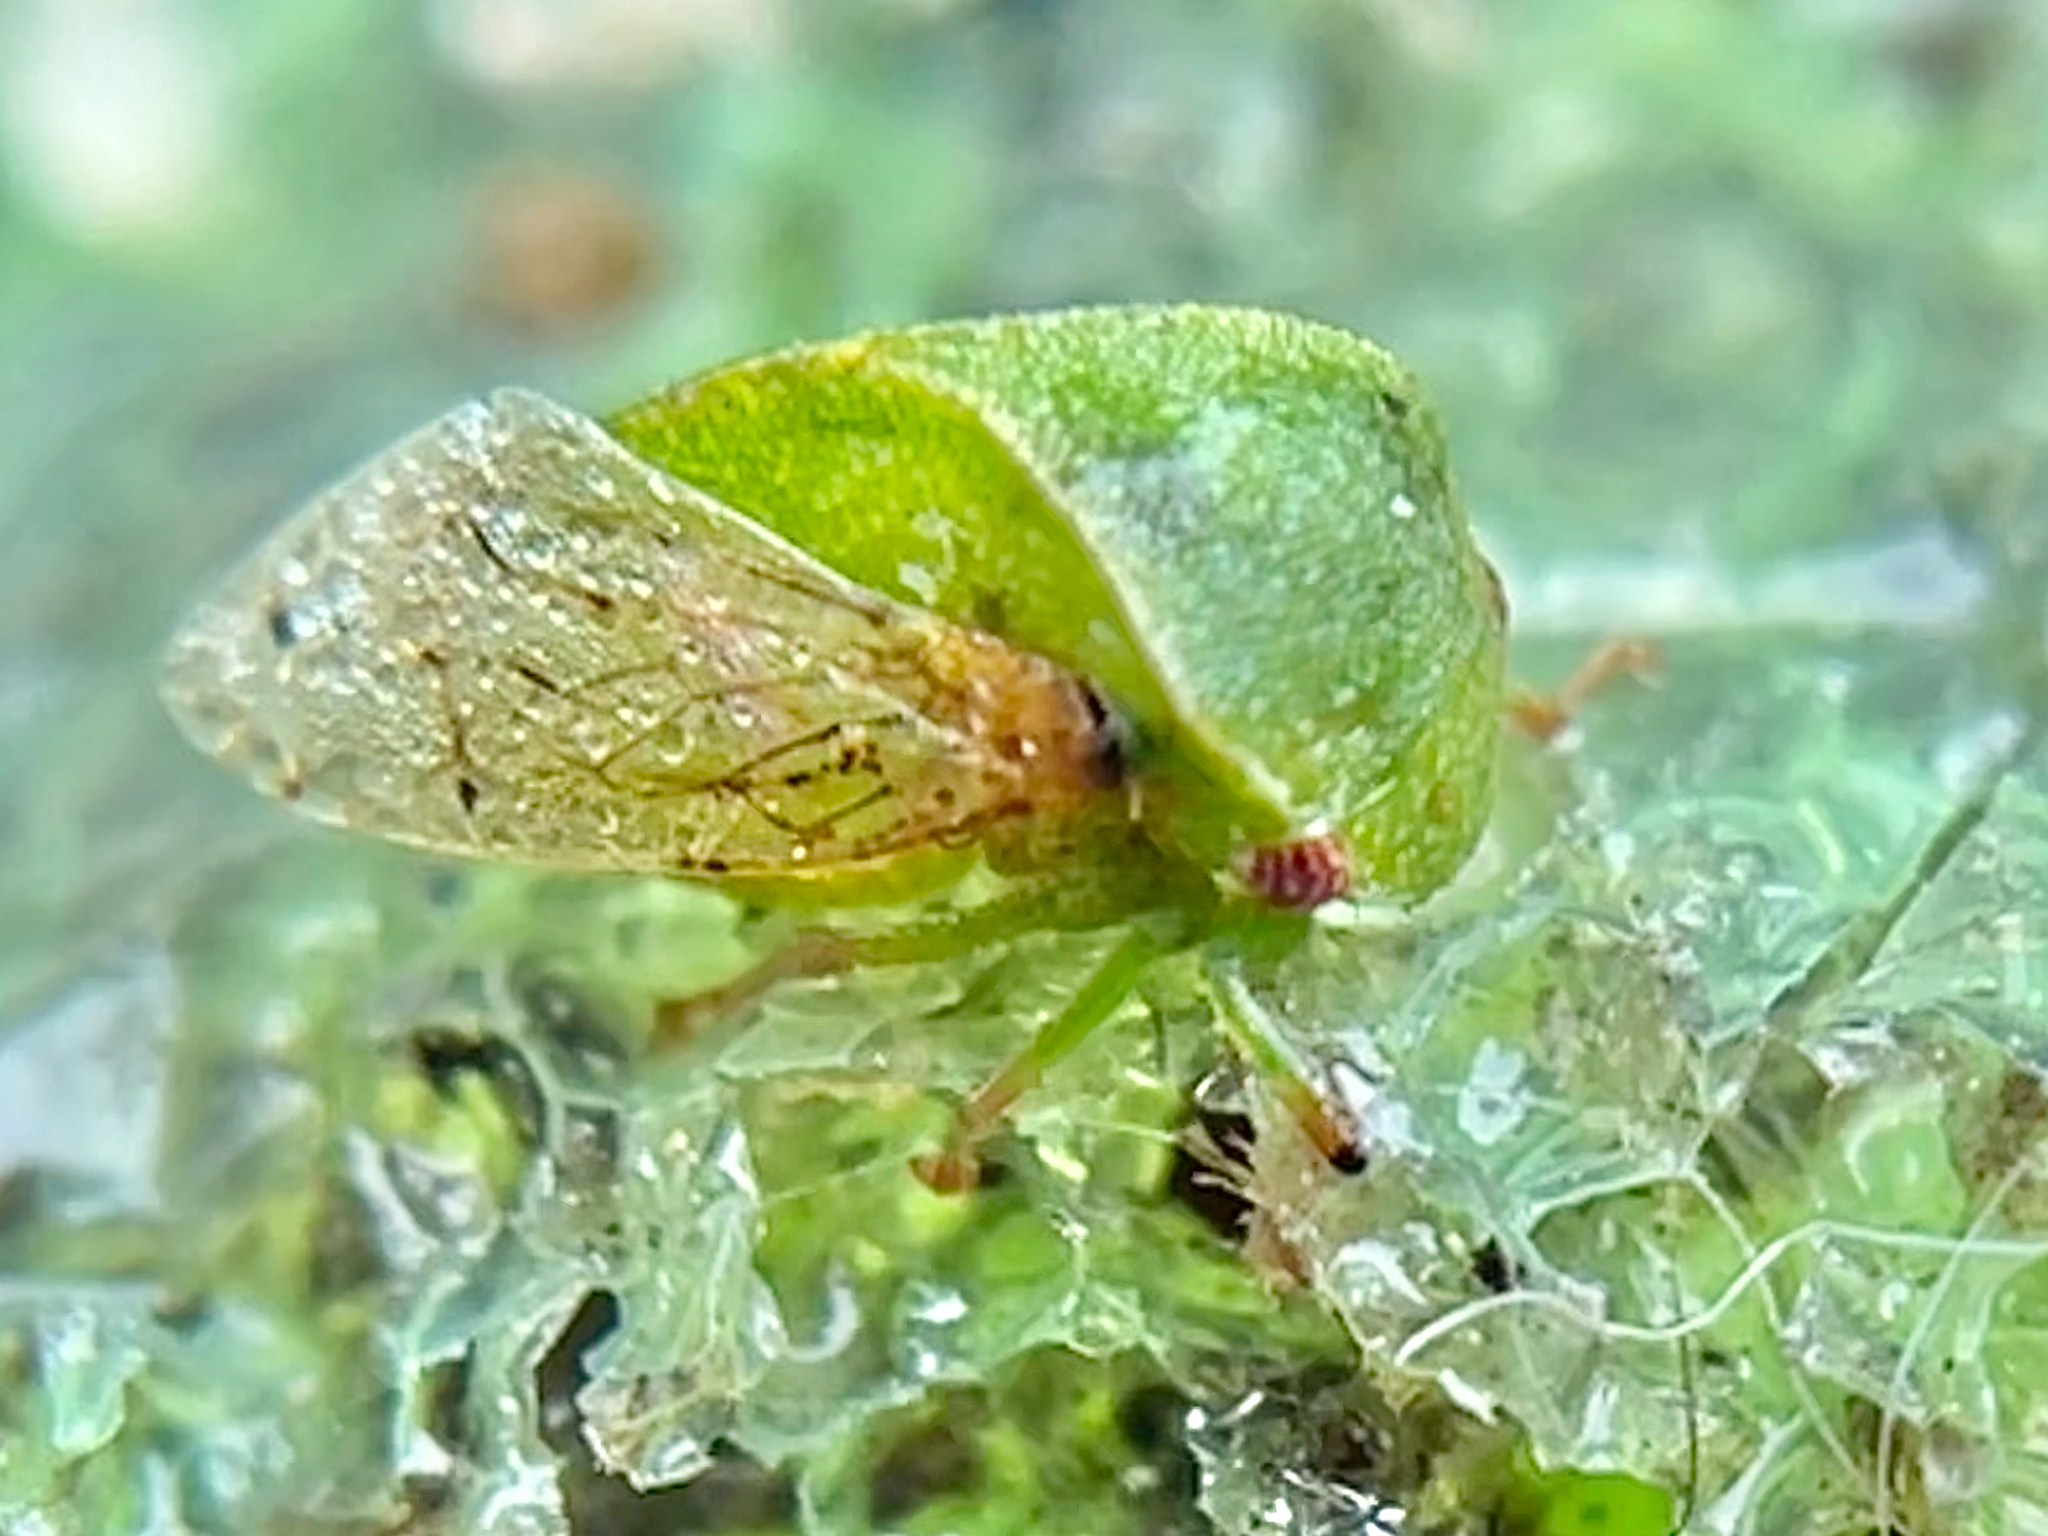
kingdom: Animalia
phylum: Arthropoda
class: Insecta
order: Hemiptera
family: Membracidae
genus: Spissistilus
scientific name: Spissistilus festina
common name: Membracid bug
